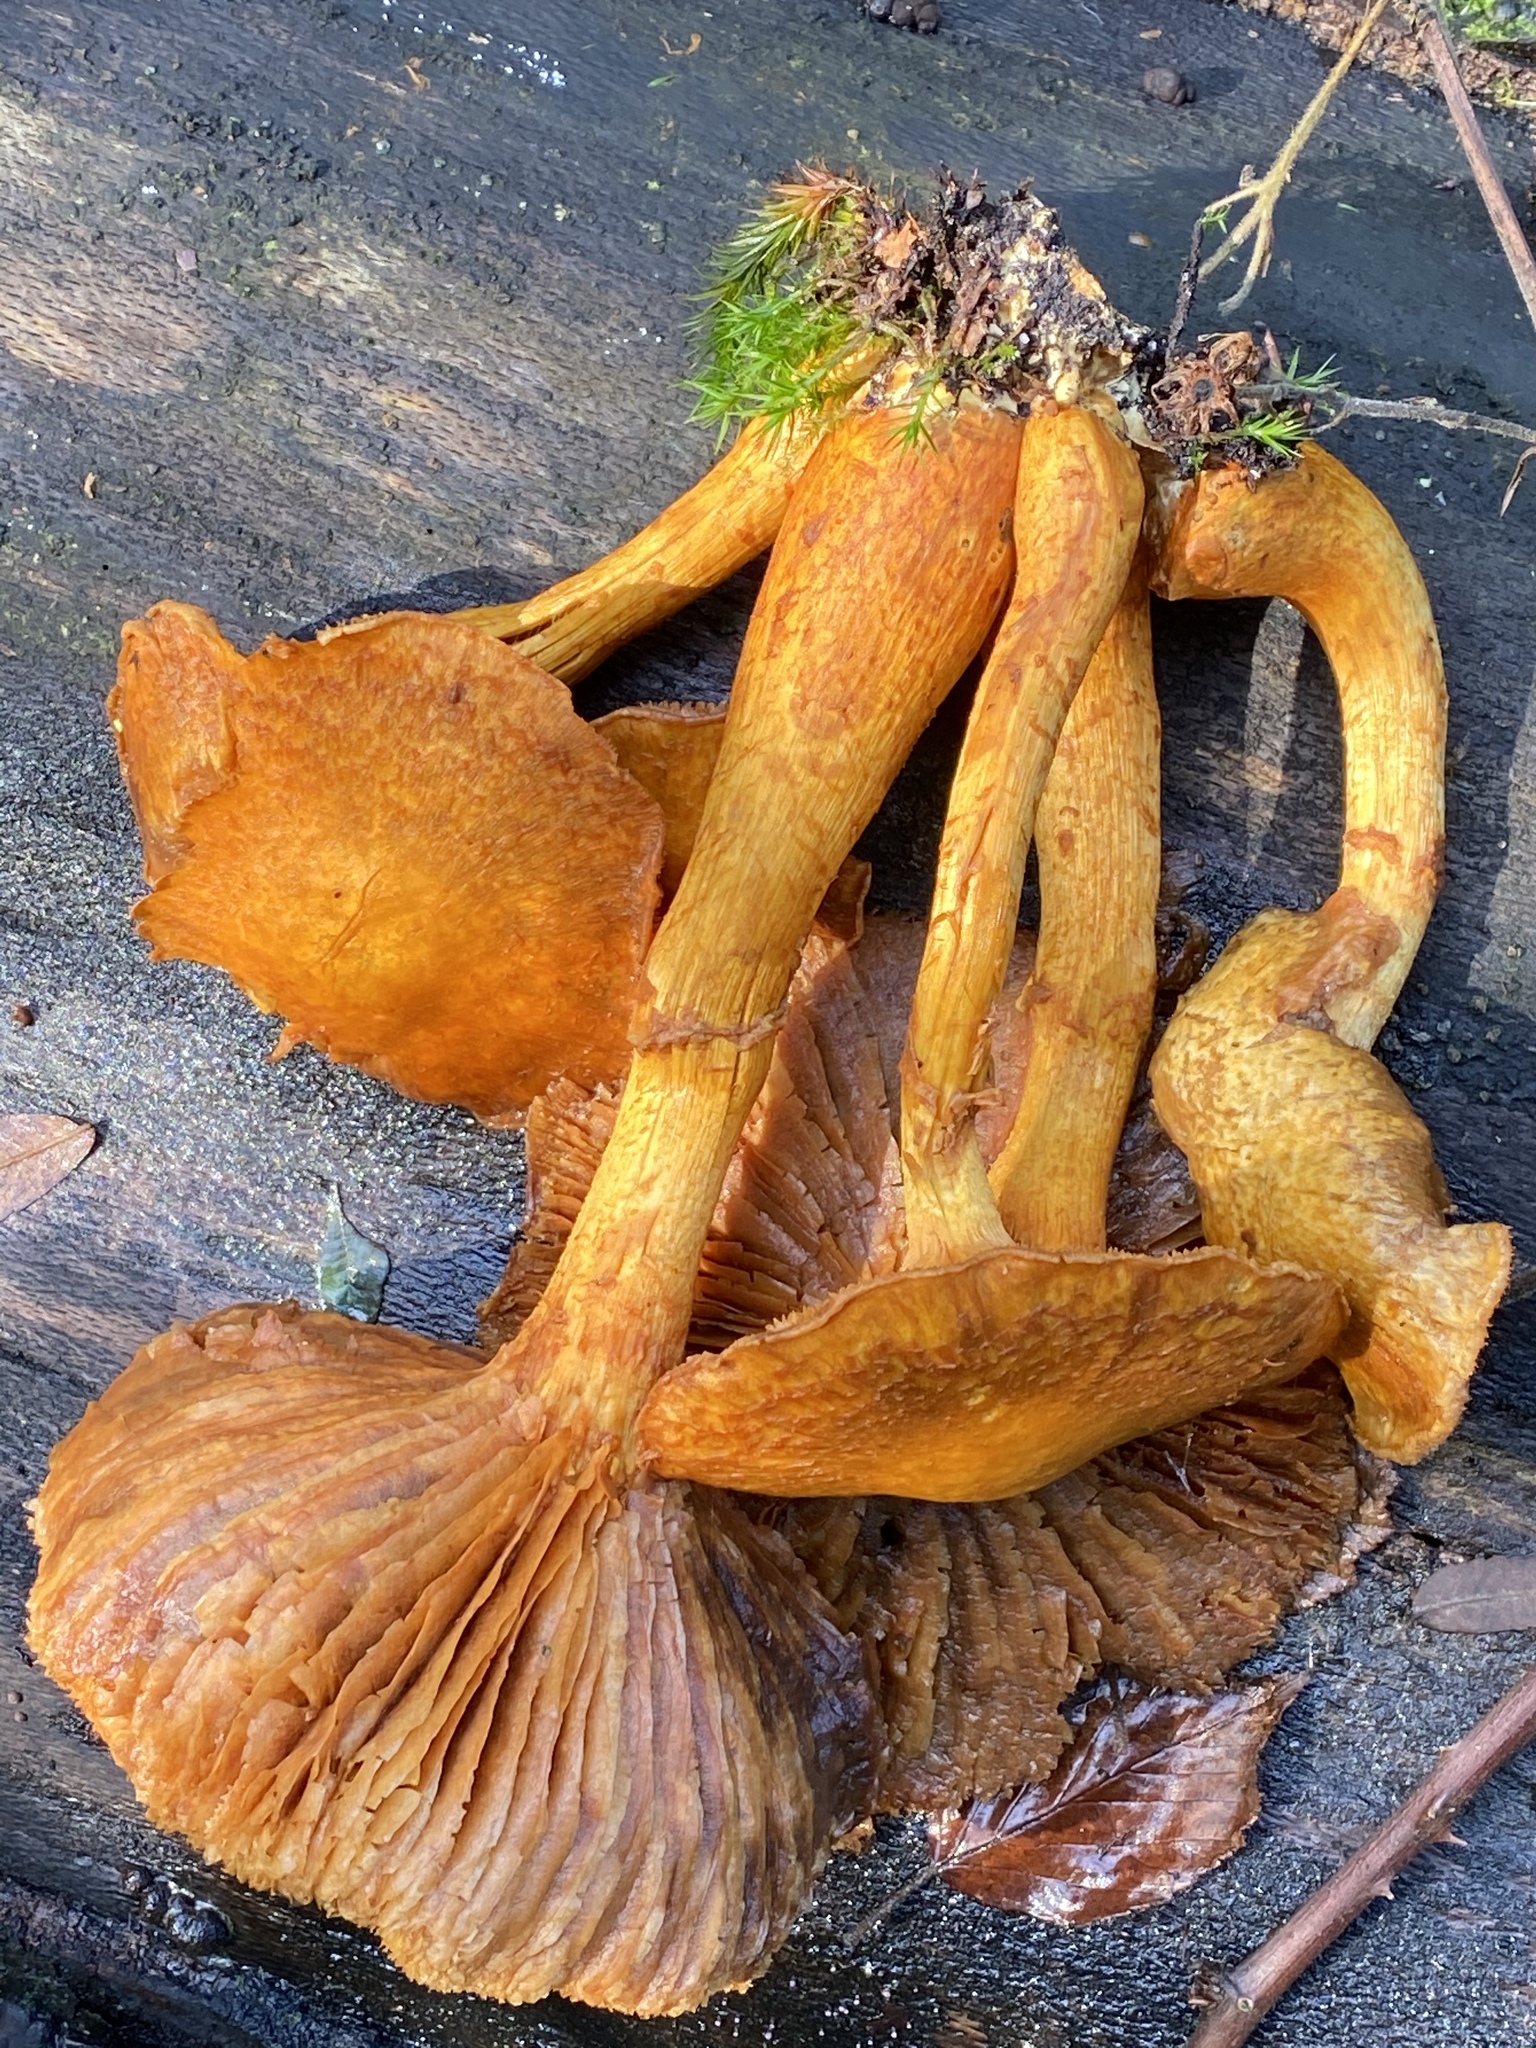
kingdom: Fungi
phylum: Basidiomycota
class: Agaricomycetes
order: Agaricales
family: Hymenogastraceae
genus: Gymnopilus
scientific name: Gymnopilus junonius
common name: Spectacular rustgill
